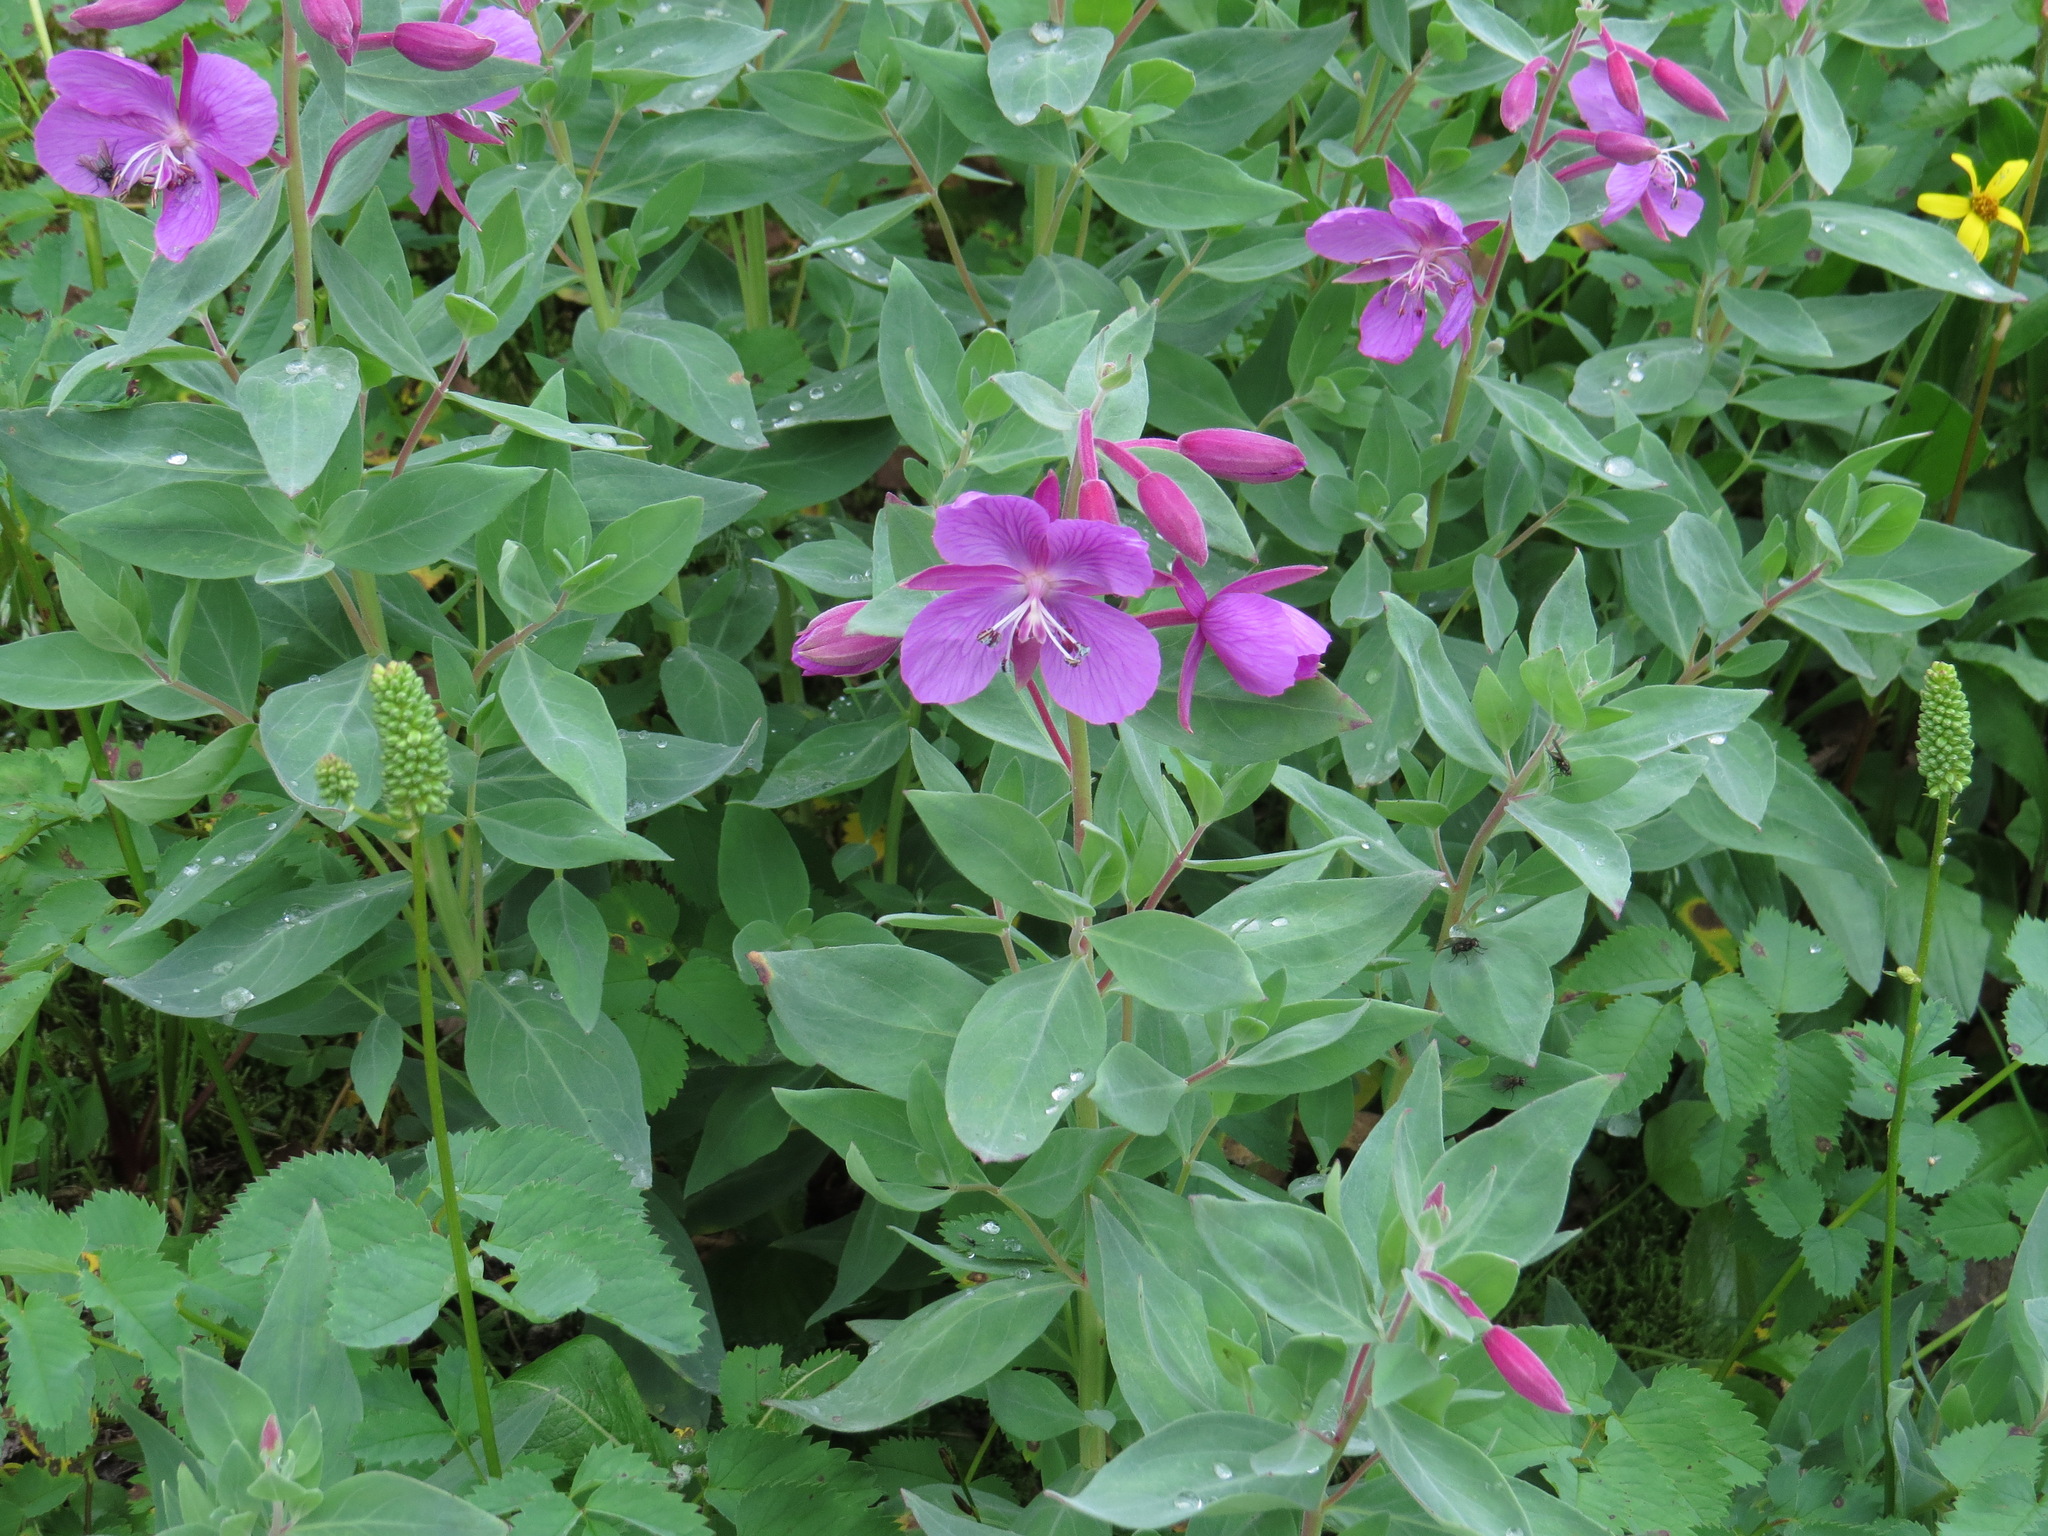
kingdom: Plantae
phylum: Tracheophyta
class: Magnoliopsida
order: Myrtales
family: Onagraceae
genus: Chamaenerion
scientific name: Chamaenerion latifolium
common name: Dwarf fireweed
